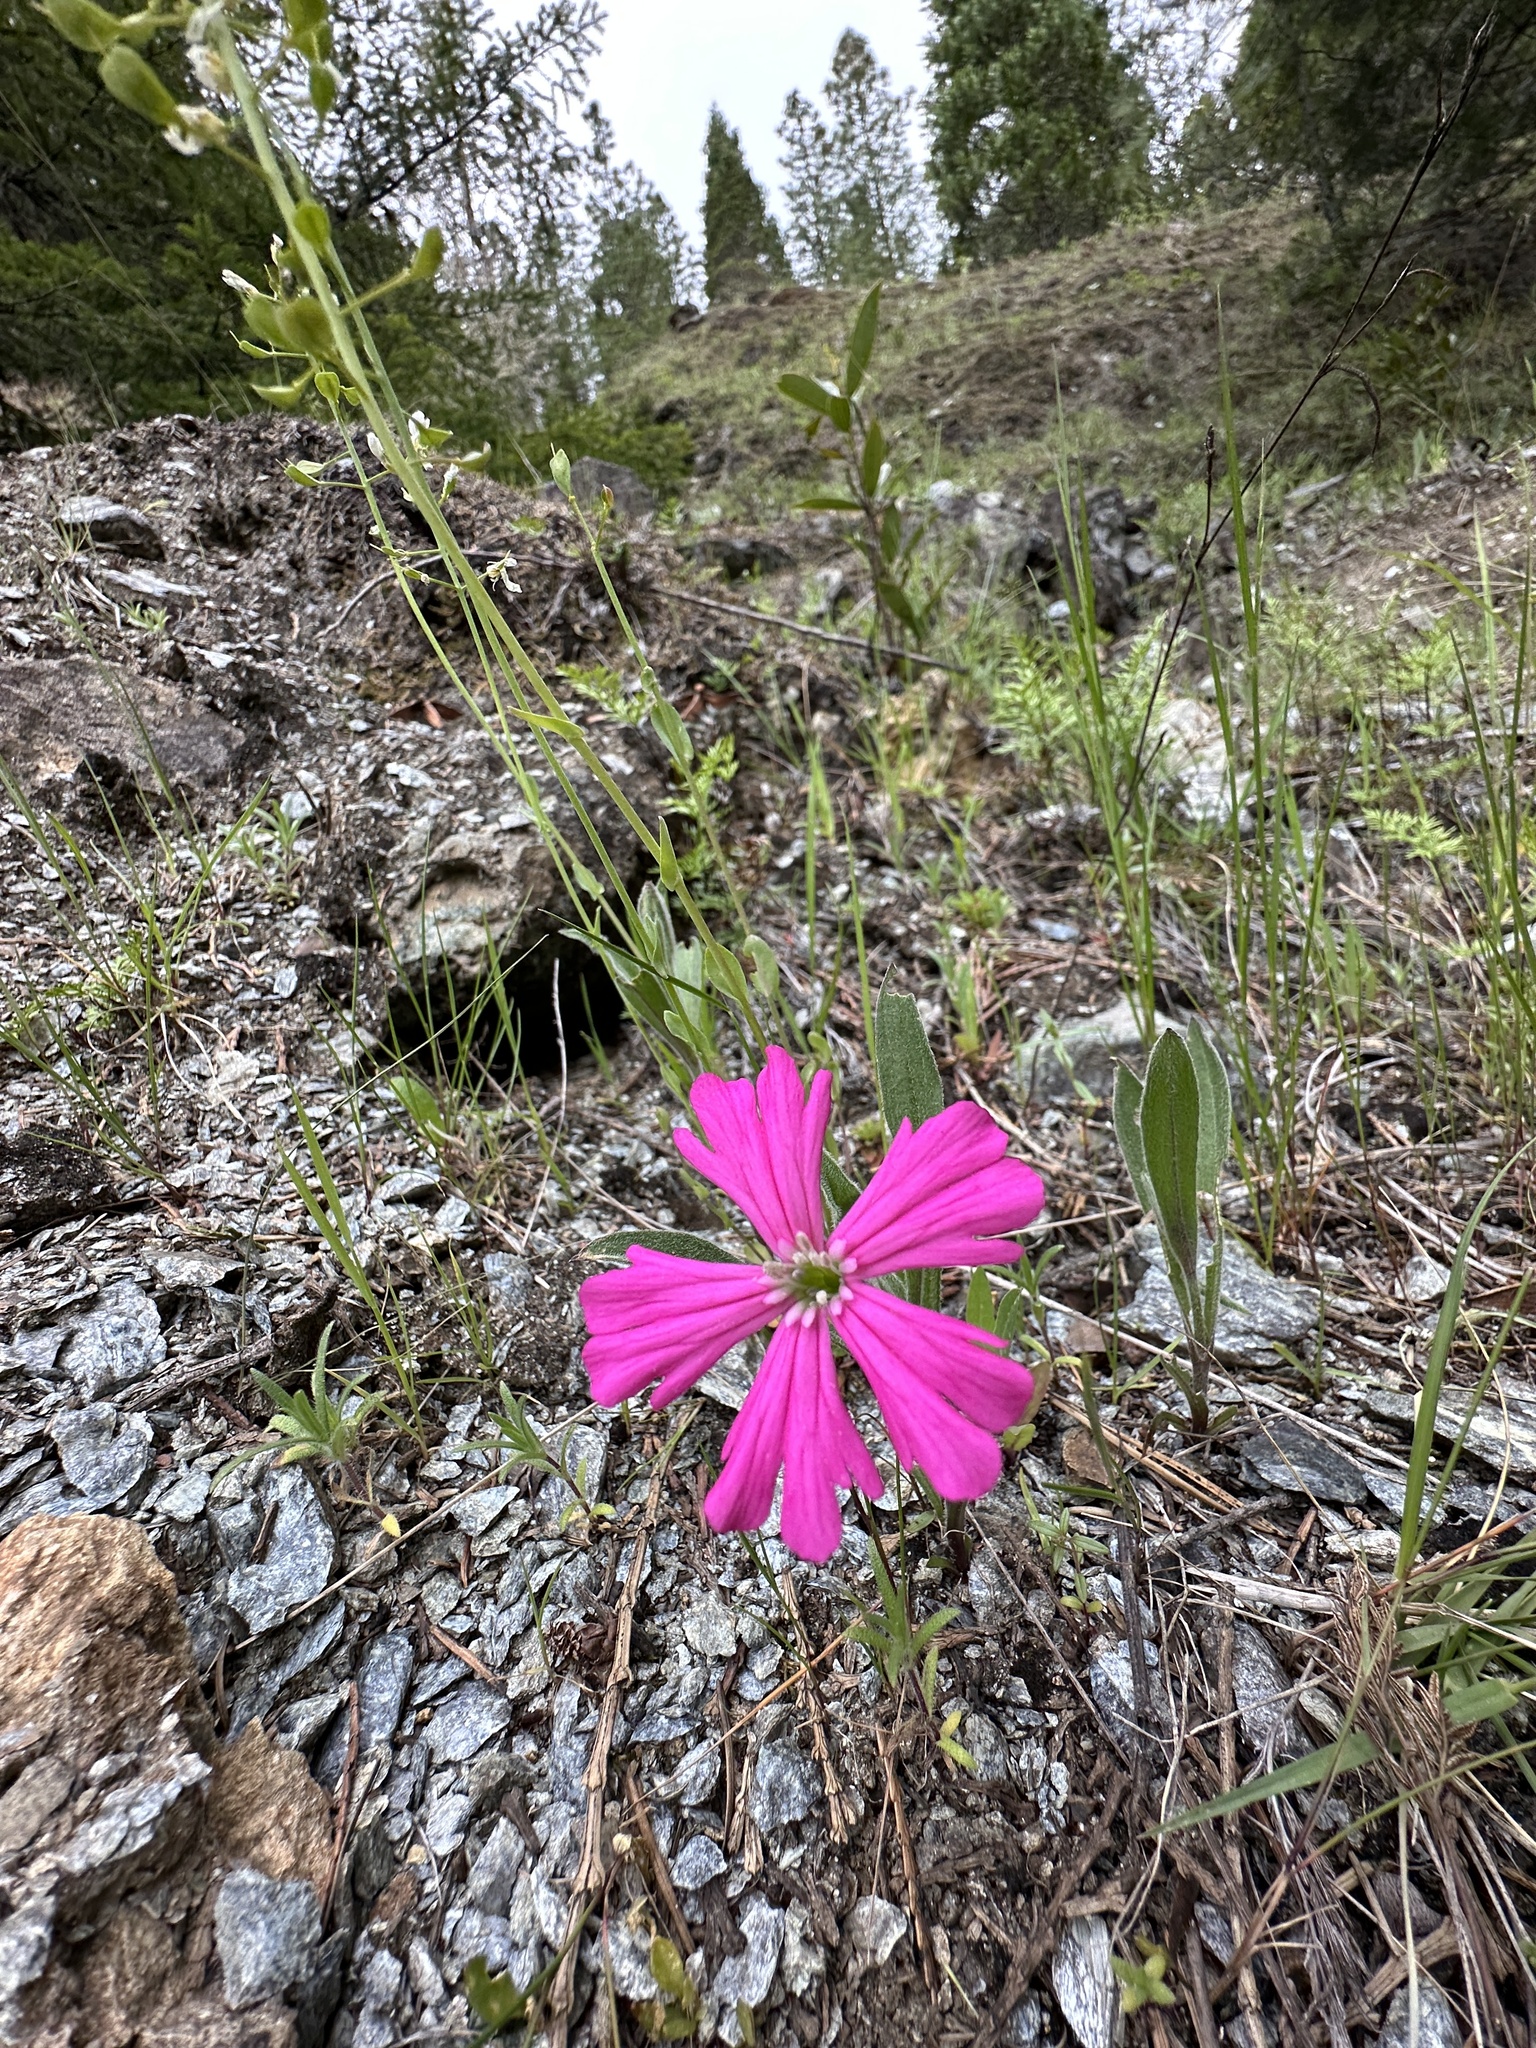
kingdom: Plantae
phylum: Tracheophyta
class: Magnoliopsida
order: Caryophyllales
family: Caryophyllaceae
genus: Silene
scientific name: Silene hookeri
